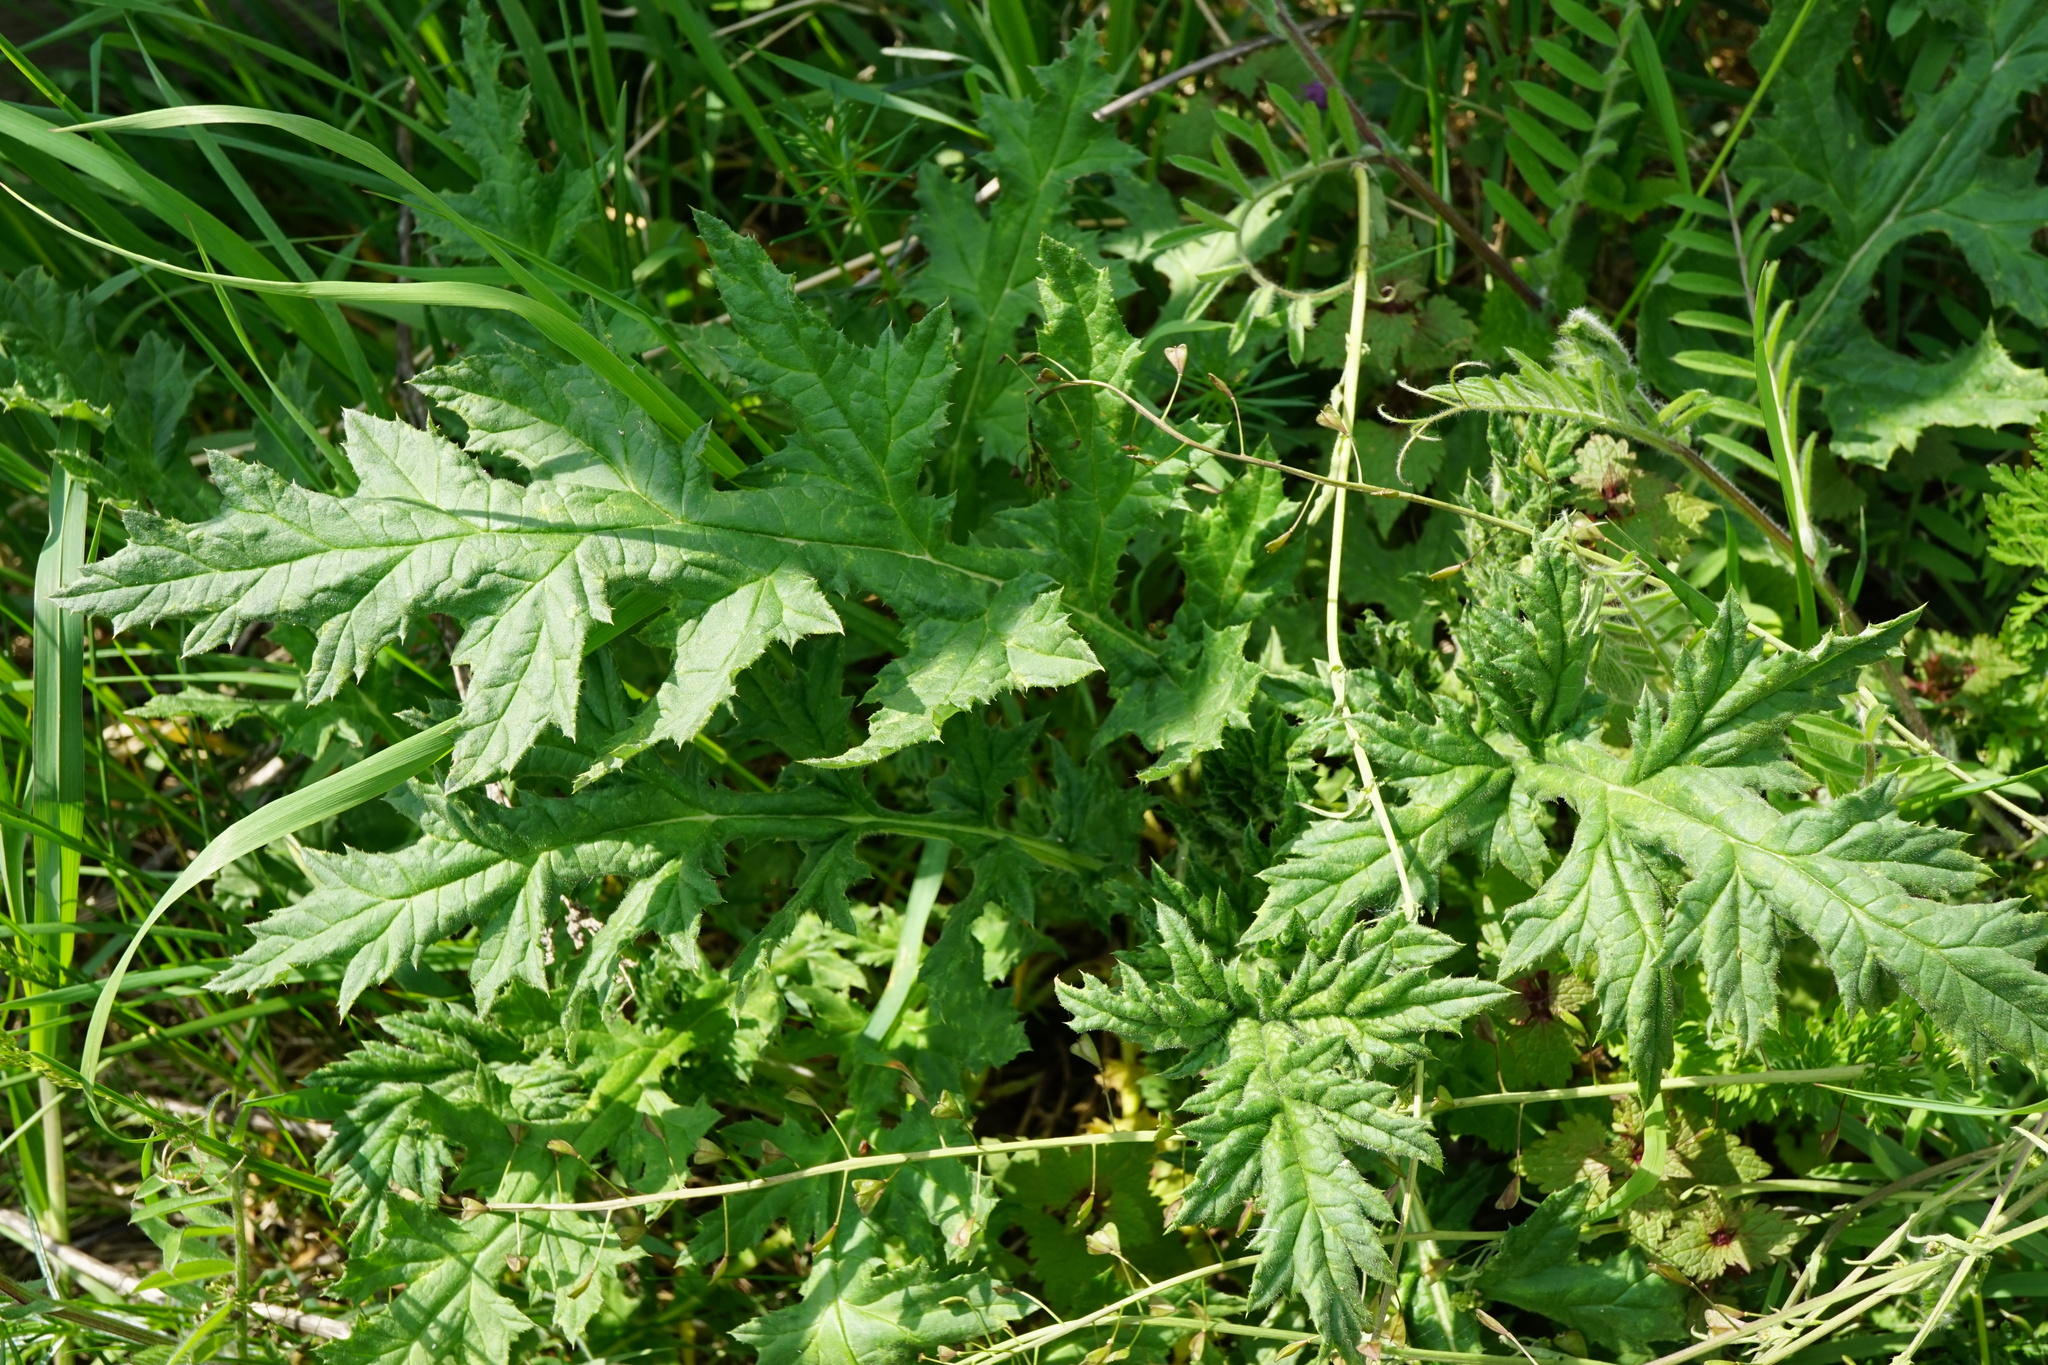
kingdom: Plantae
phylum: Tracheophyta
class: Magnoliopsida
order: Asterales
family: Asteraceae
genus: Echinops
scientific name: Echinops sphaerocephalus
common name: Glandular globe-thistle
